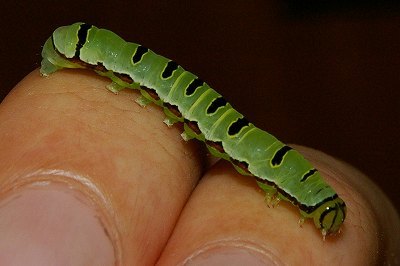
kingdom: Animalia
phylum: Arthropoda
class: Insecta
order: Lepidoptera
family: Noctuidae
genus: Callopistria
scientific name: Callopistria repleta
